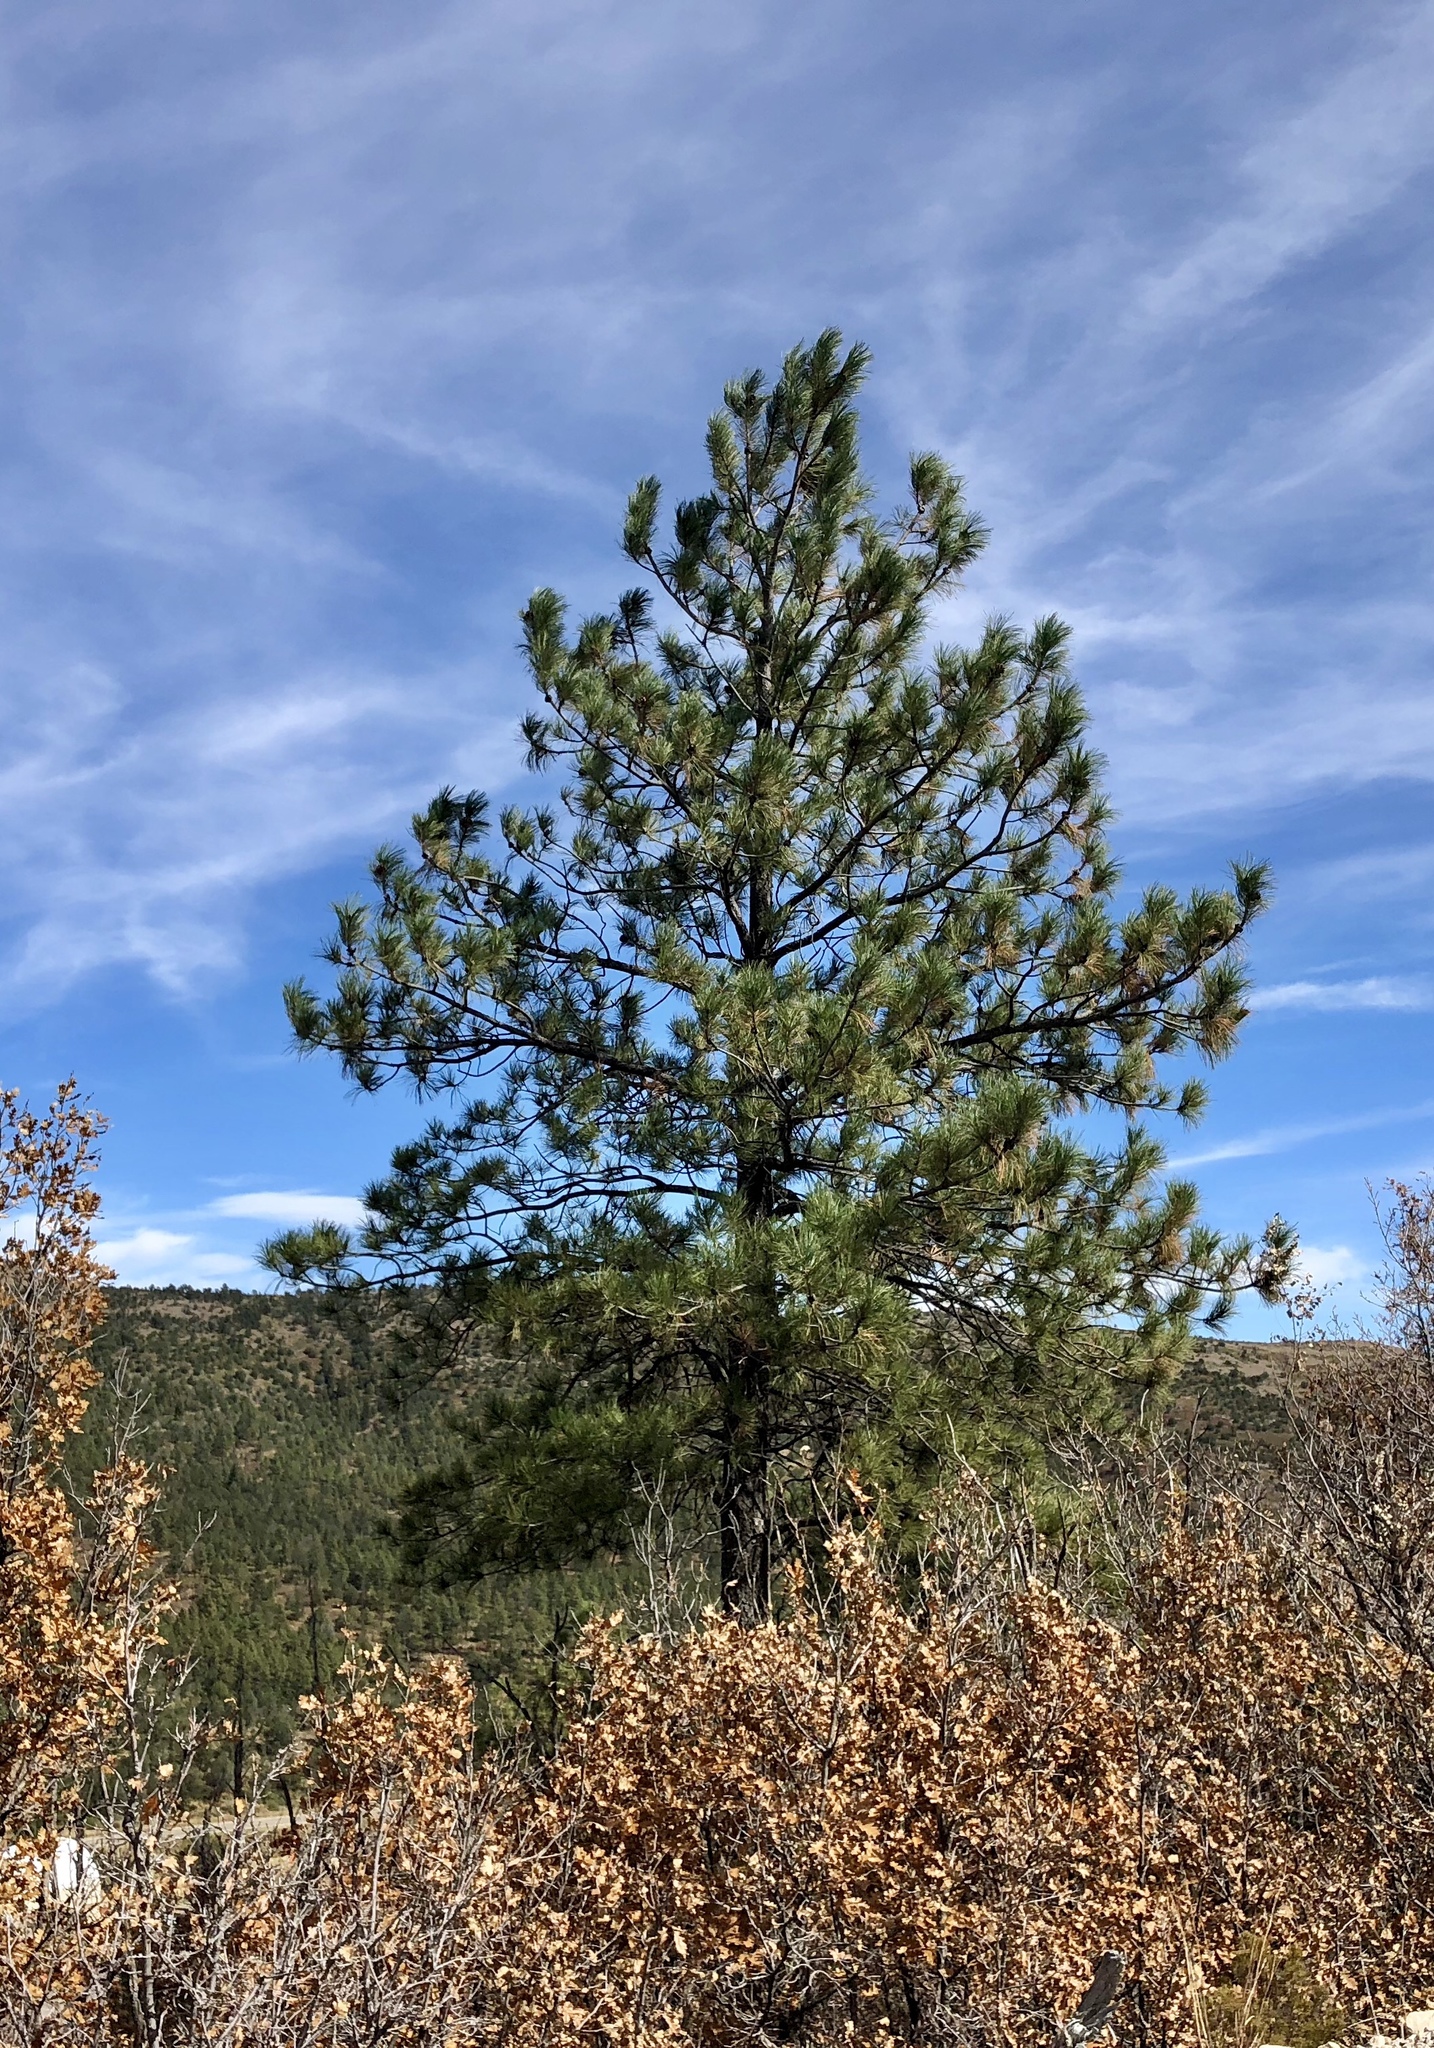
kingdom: Plantae
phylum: Tracheophyta
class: Pinopsida
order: Pinales
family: Pinaceae
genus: Pinus
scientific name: Pinus ponderosa
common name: Western yellow-pine
